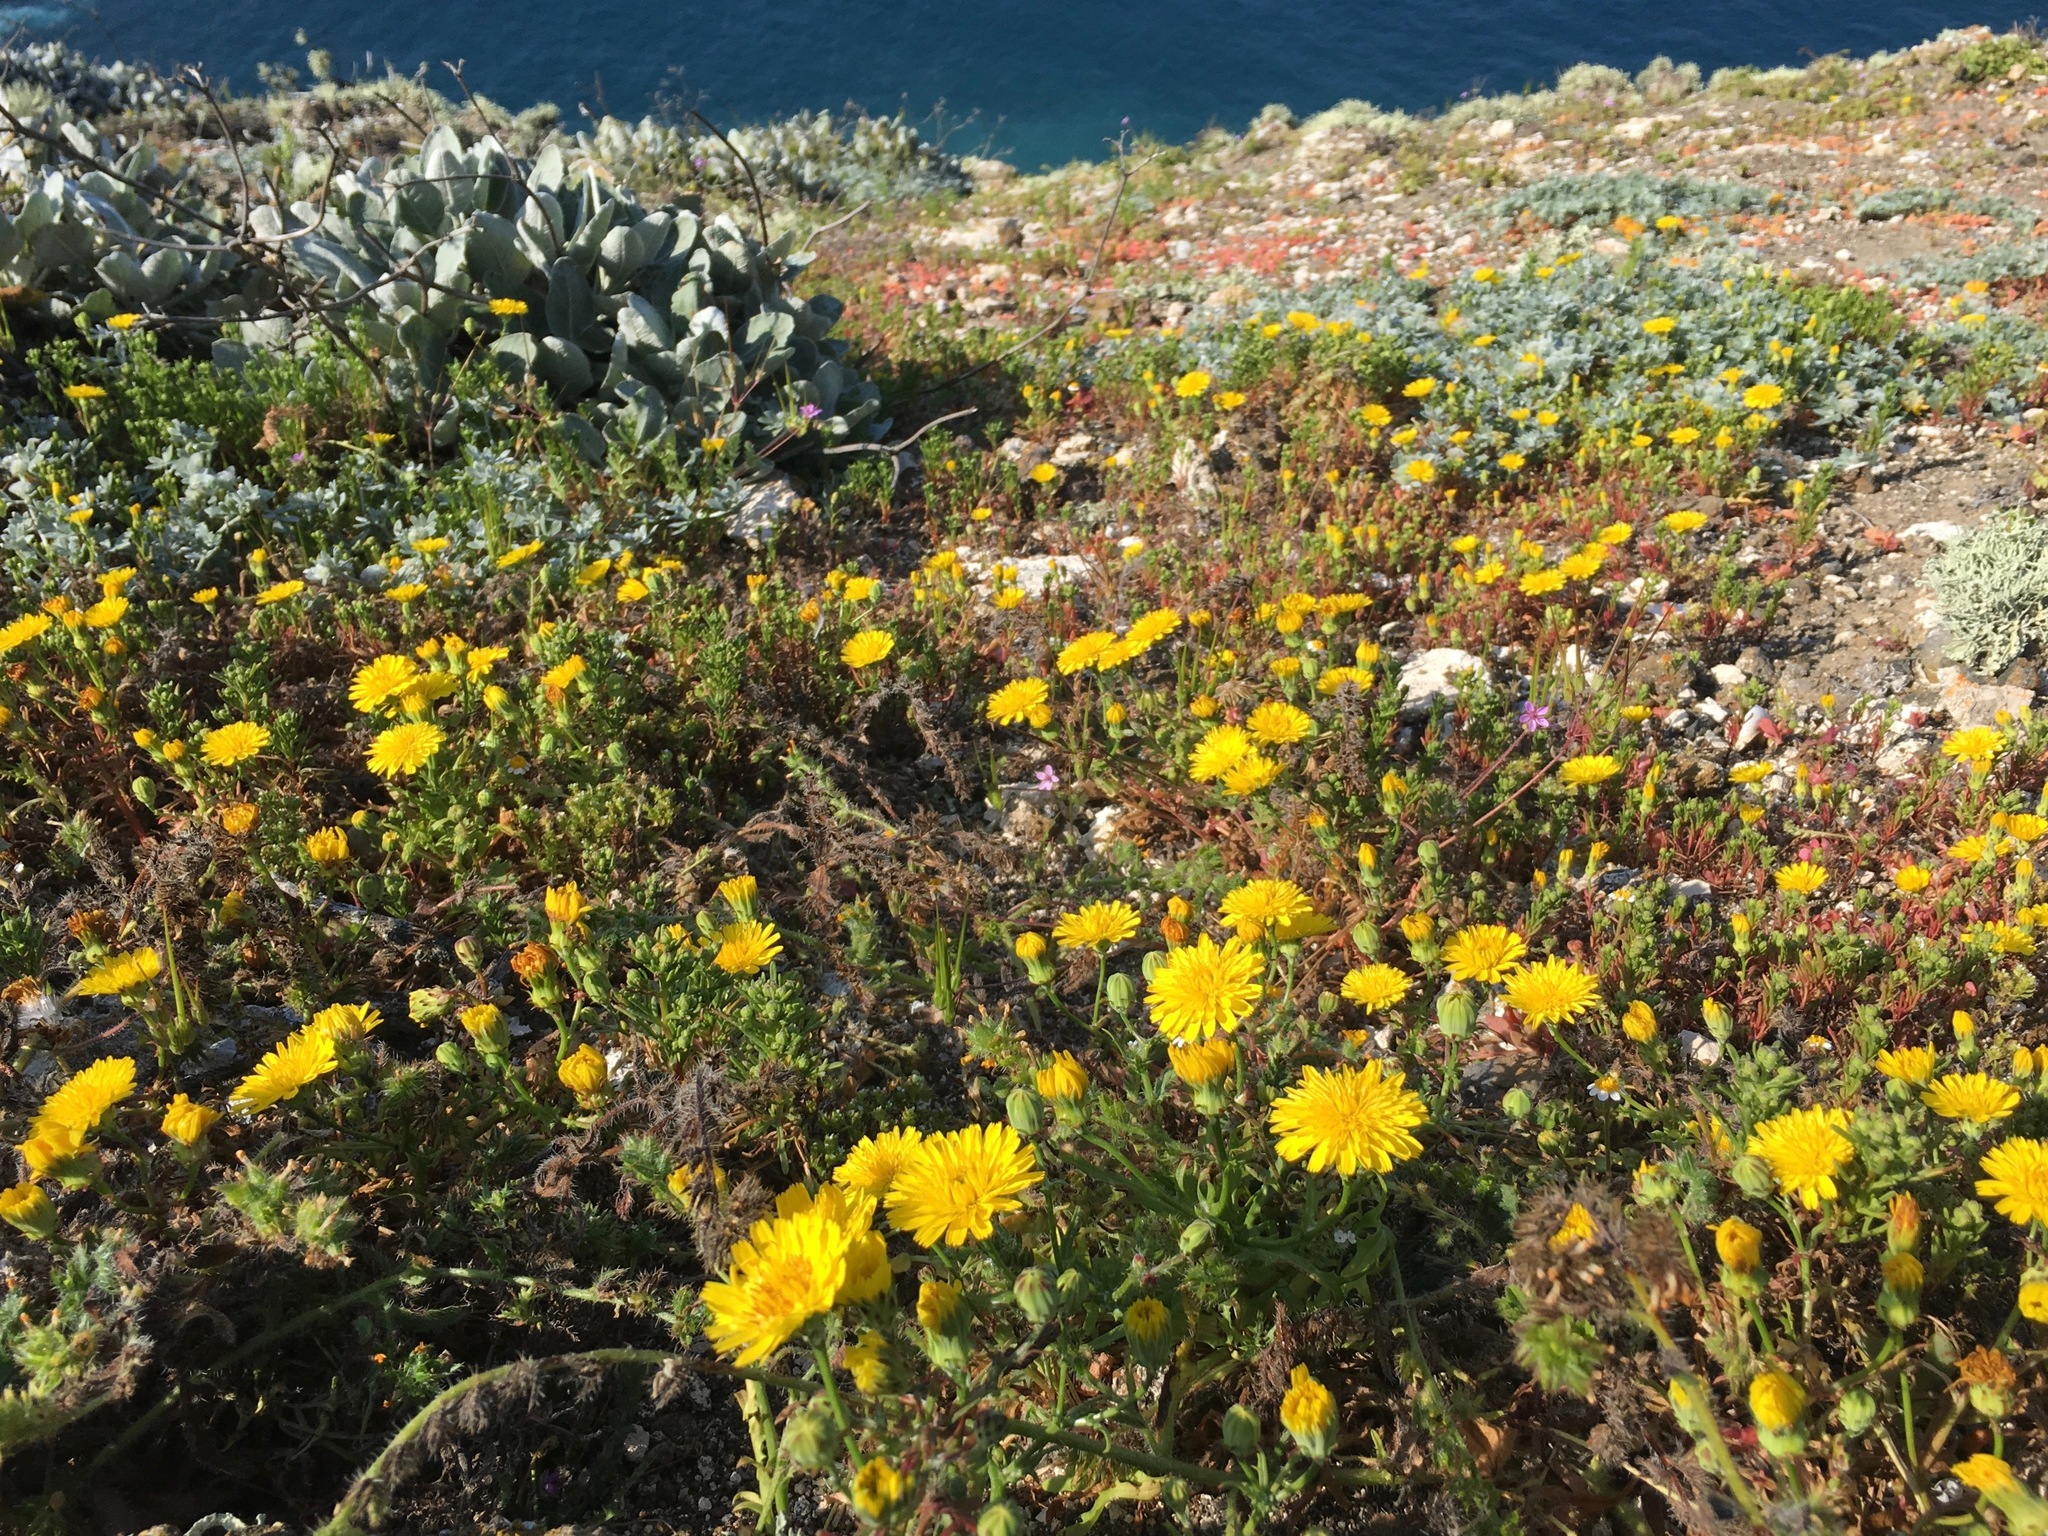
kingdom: Plantae
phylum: Tracheophyta
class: Magnoliopsida
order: Asterales
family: Asteraceae
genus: Malacothrix
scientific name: Malacothrix foliosa
